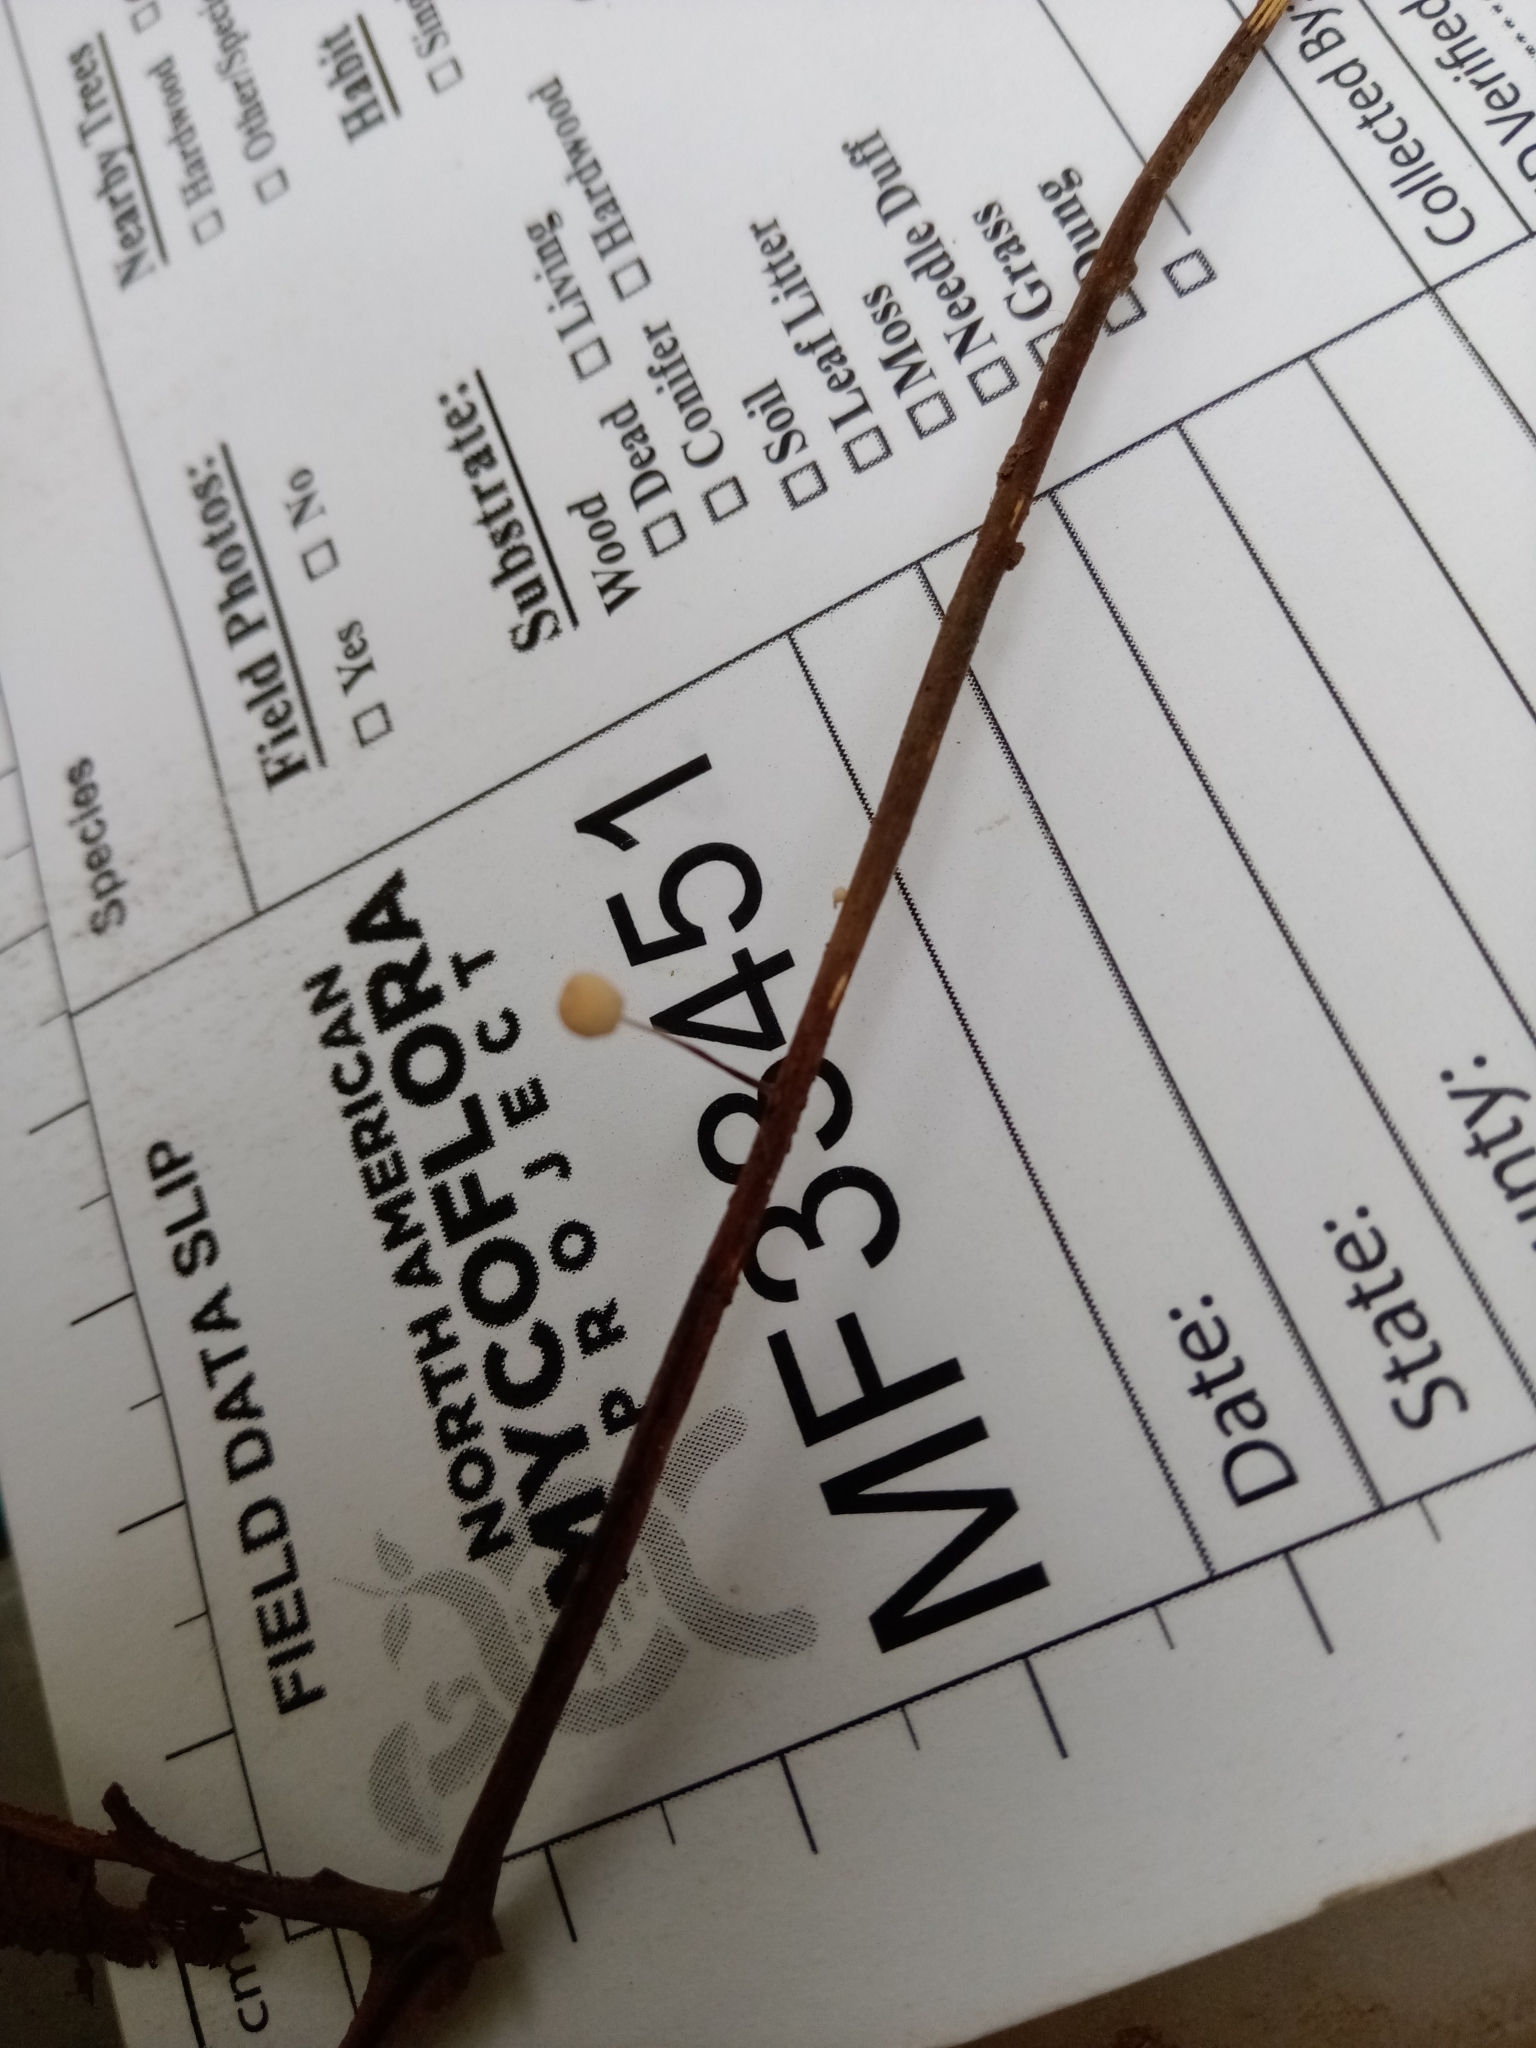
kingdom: Fungi
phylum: Basidiomycota
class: Agaricomycetes
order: Agaricales
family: Marasmiaceae
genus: Marasmius
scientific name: Marasmius felix
